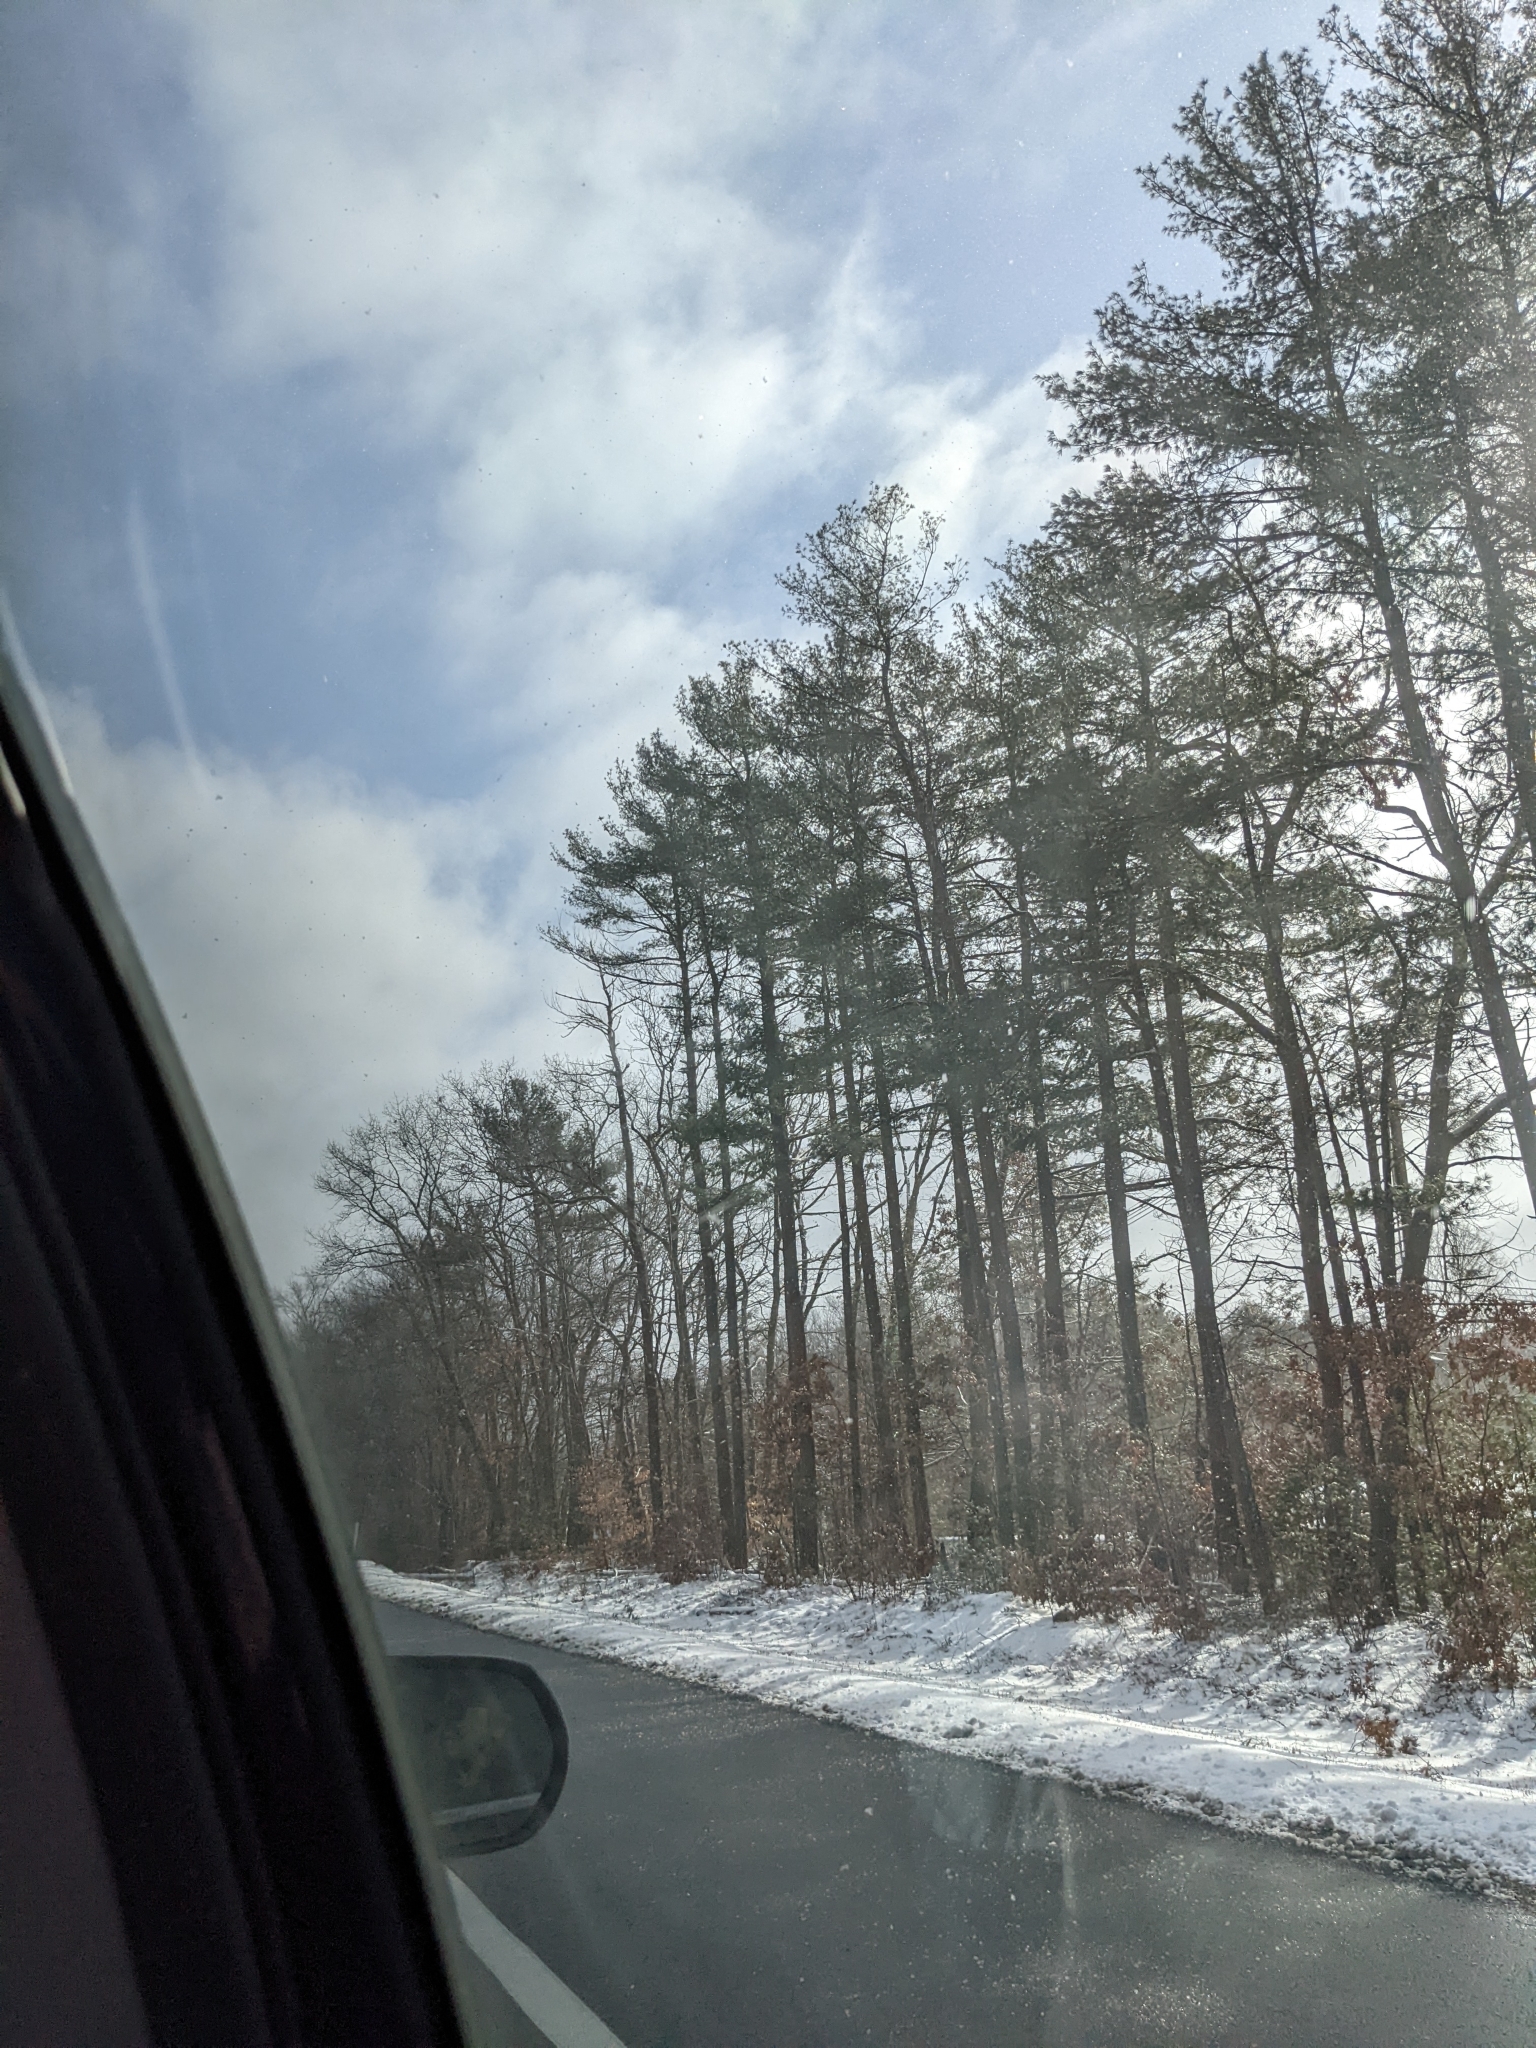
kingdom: Plantae
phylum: Tracheophyta
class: Pinopsida
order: Pinales
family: Pinaceae
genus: Pinus
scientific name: Pinus strobus
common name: Weymouth pine
